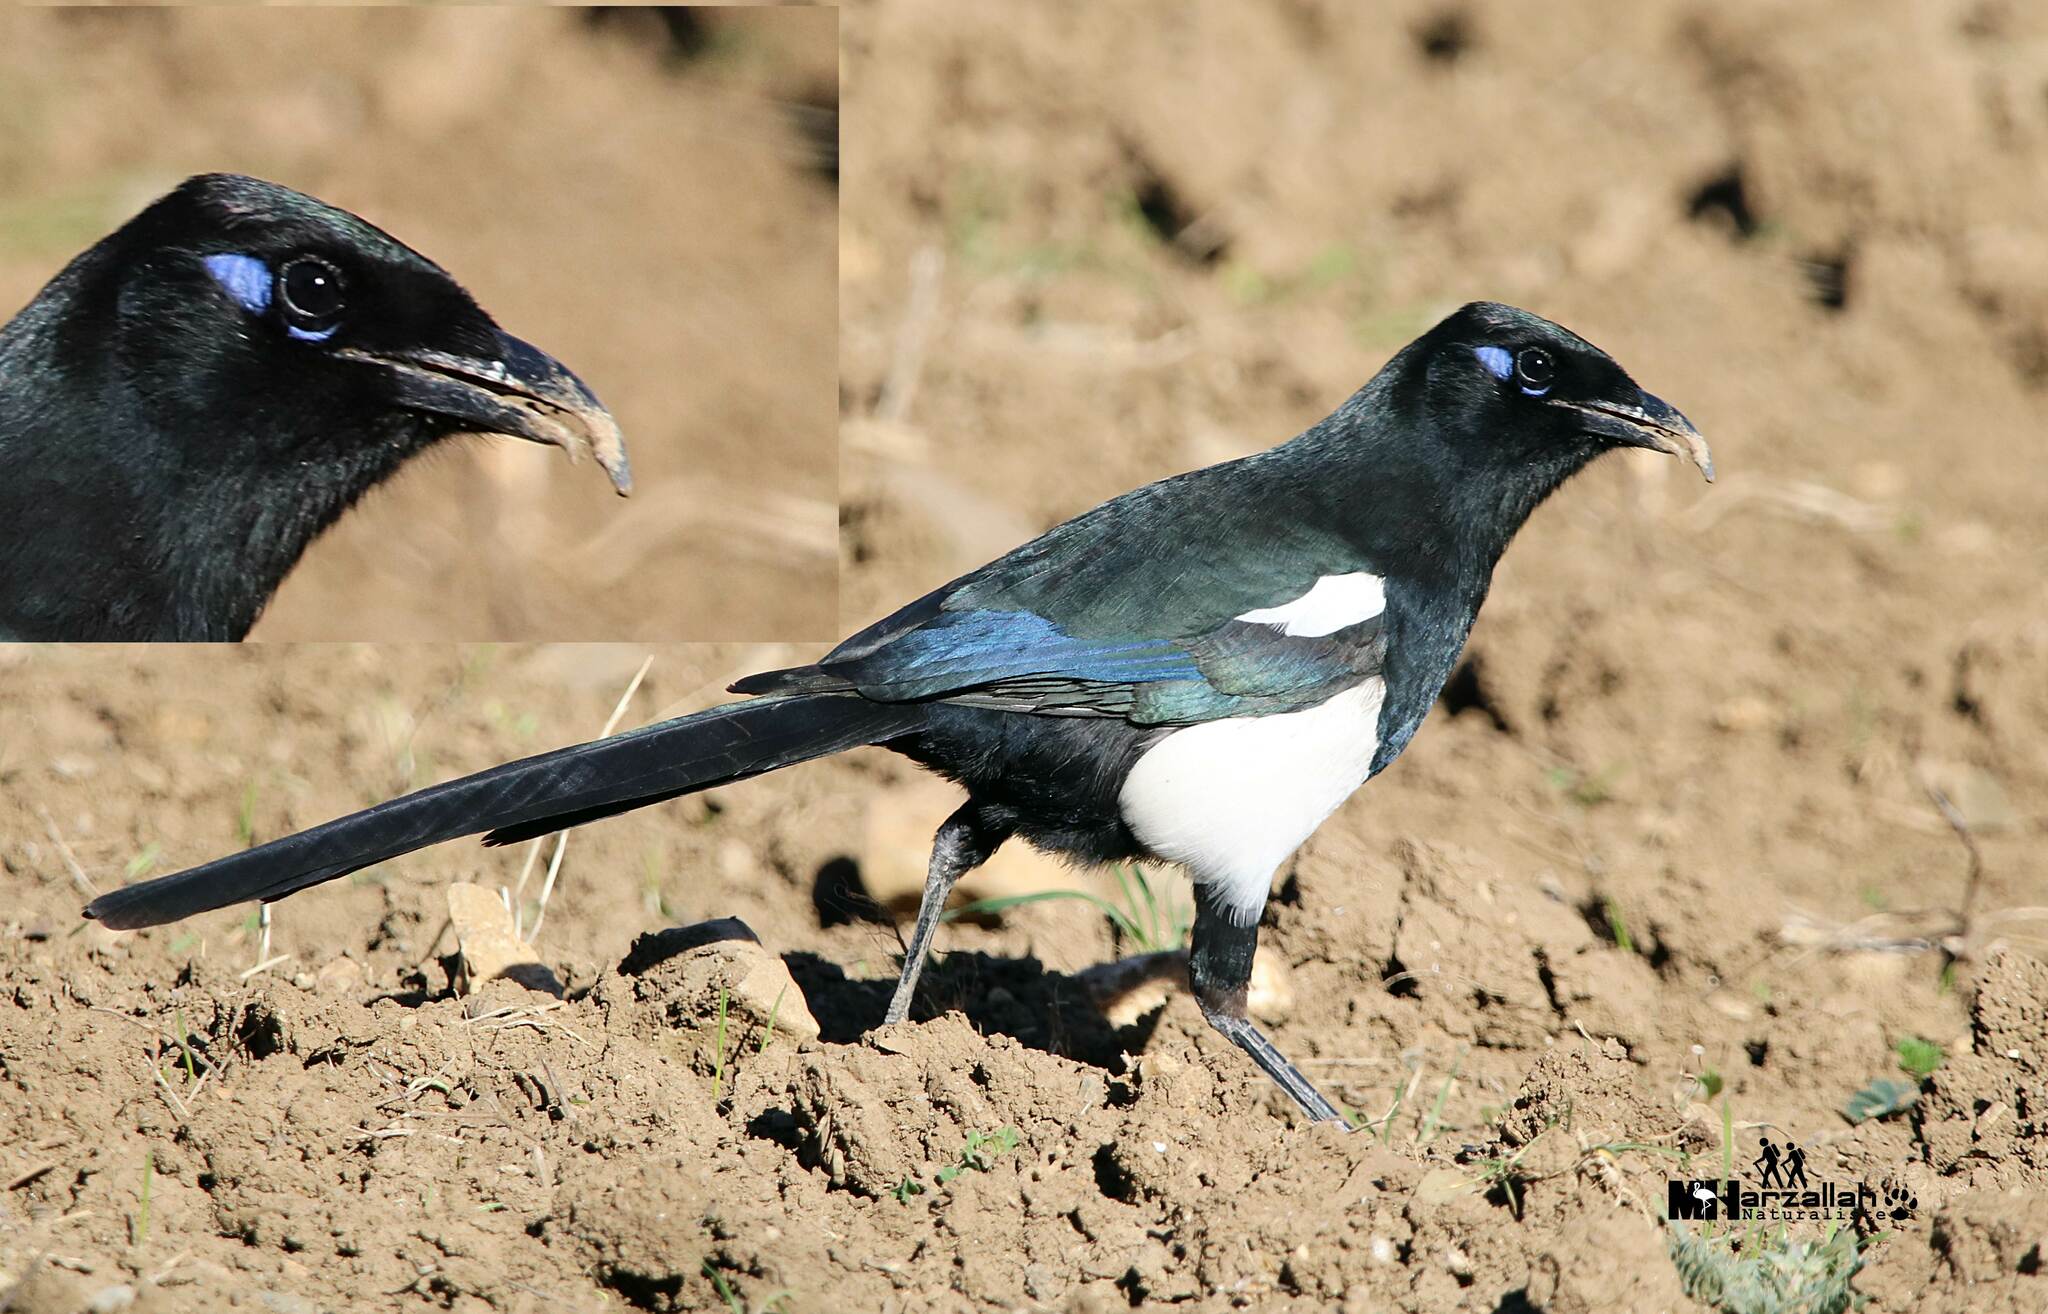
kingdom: Animalia
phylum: Chordata
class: Aves
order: Passeriformes
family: Corvidae
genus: Pica
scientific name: Pica mauritanica
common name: Maghreb magpie
